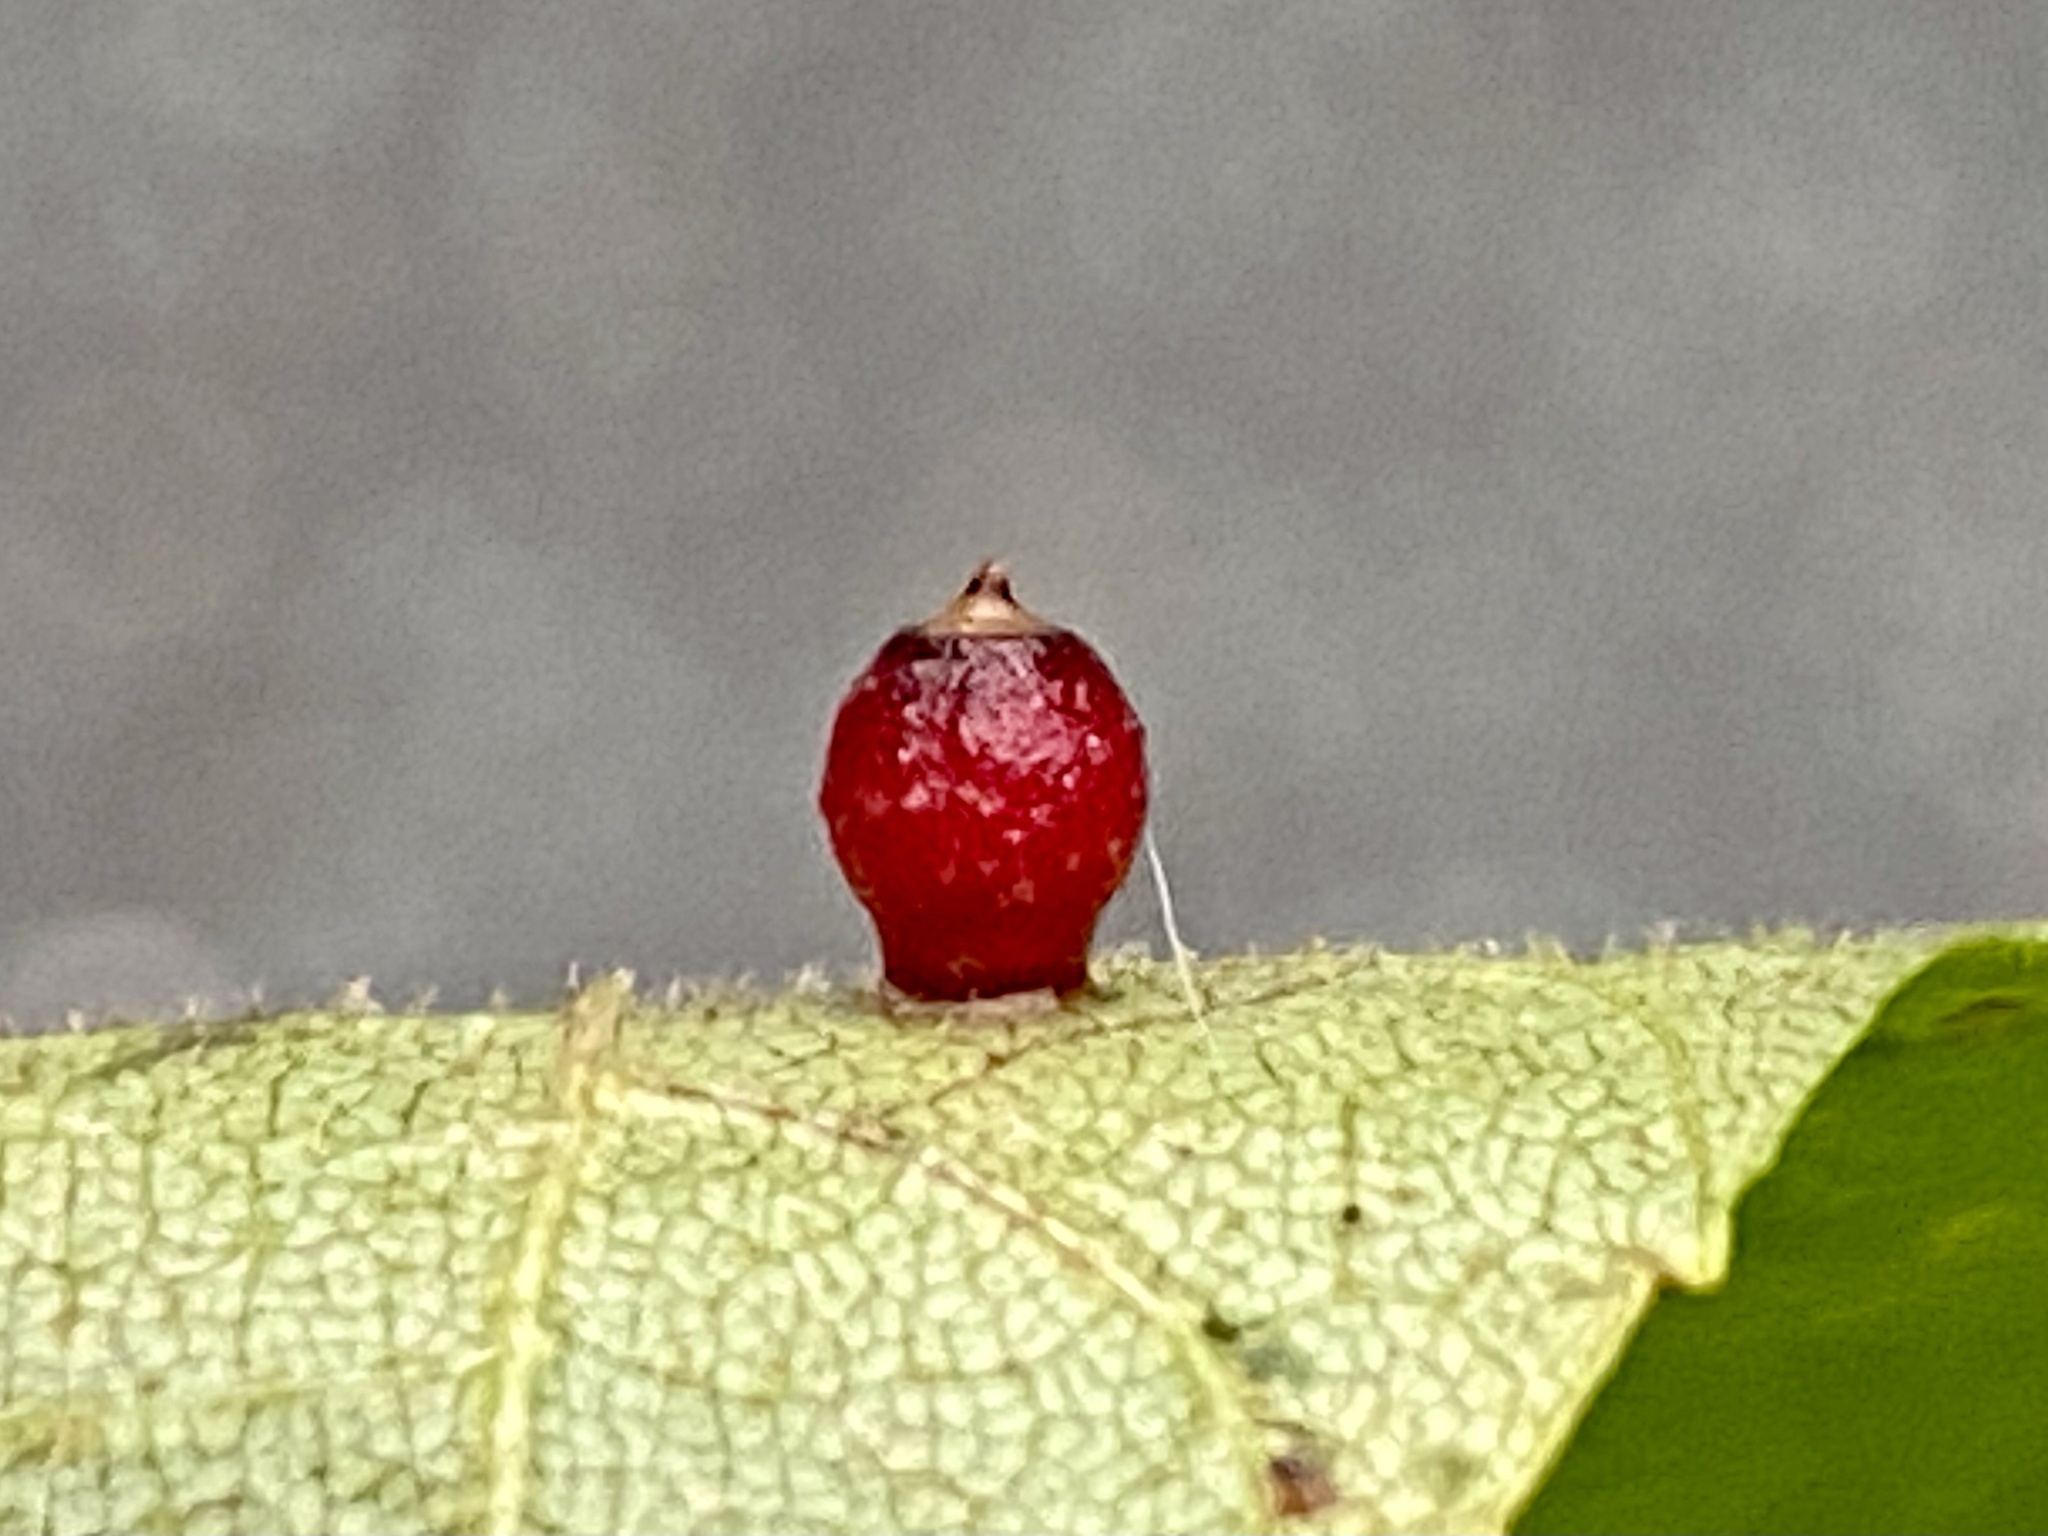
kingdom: Animalia
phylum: Arthropoda
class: Insecta
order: Diptera
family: Cecidomyiidae
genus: Caryomyia
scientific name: Caryomyia tuberidolium
